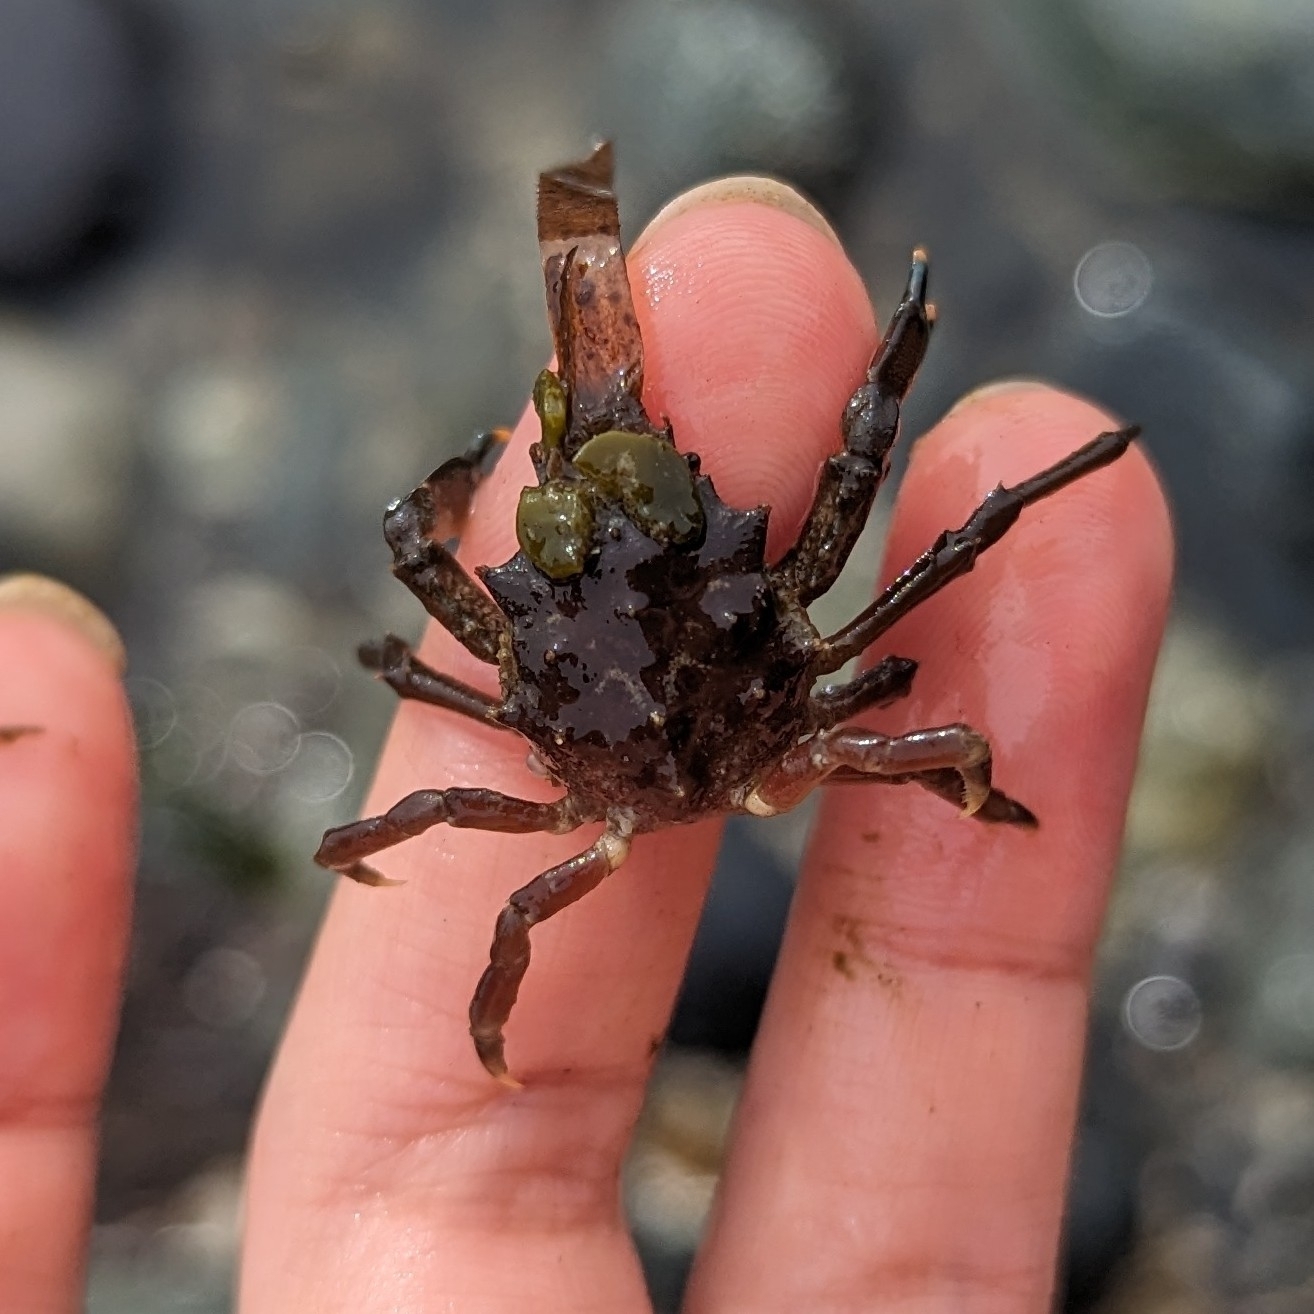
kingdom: Animalia
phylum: Arthropoda
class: Malacostraca
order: Decapoda
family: Epialtidae
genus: Pugettia
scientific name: Pugettia gracilis
